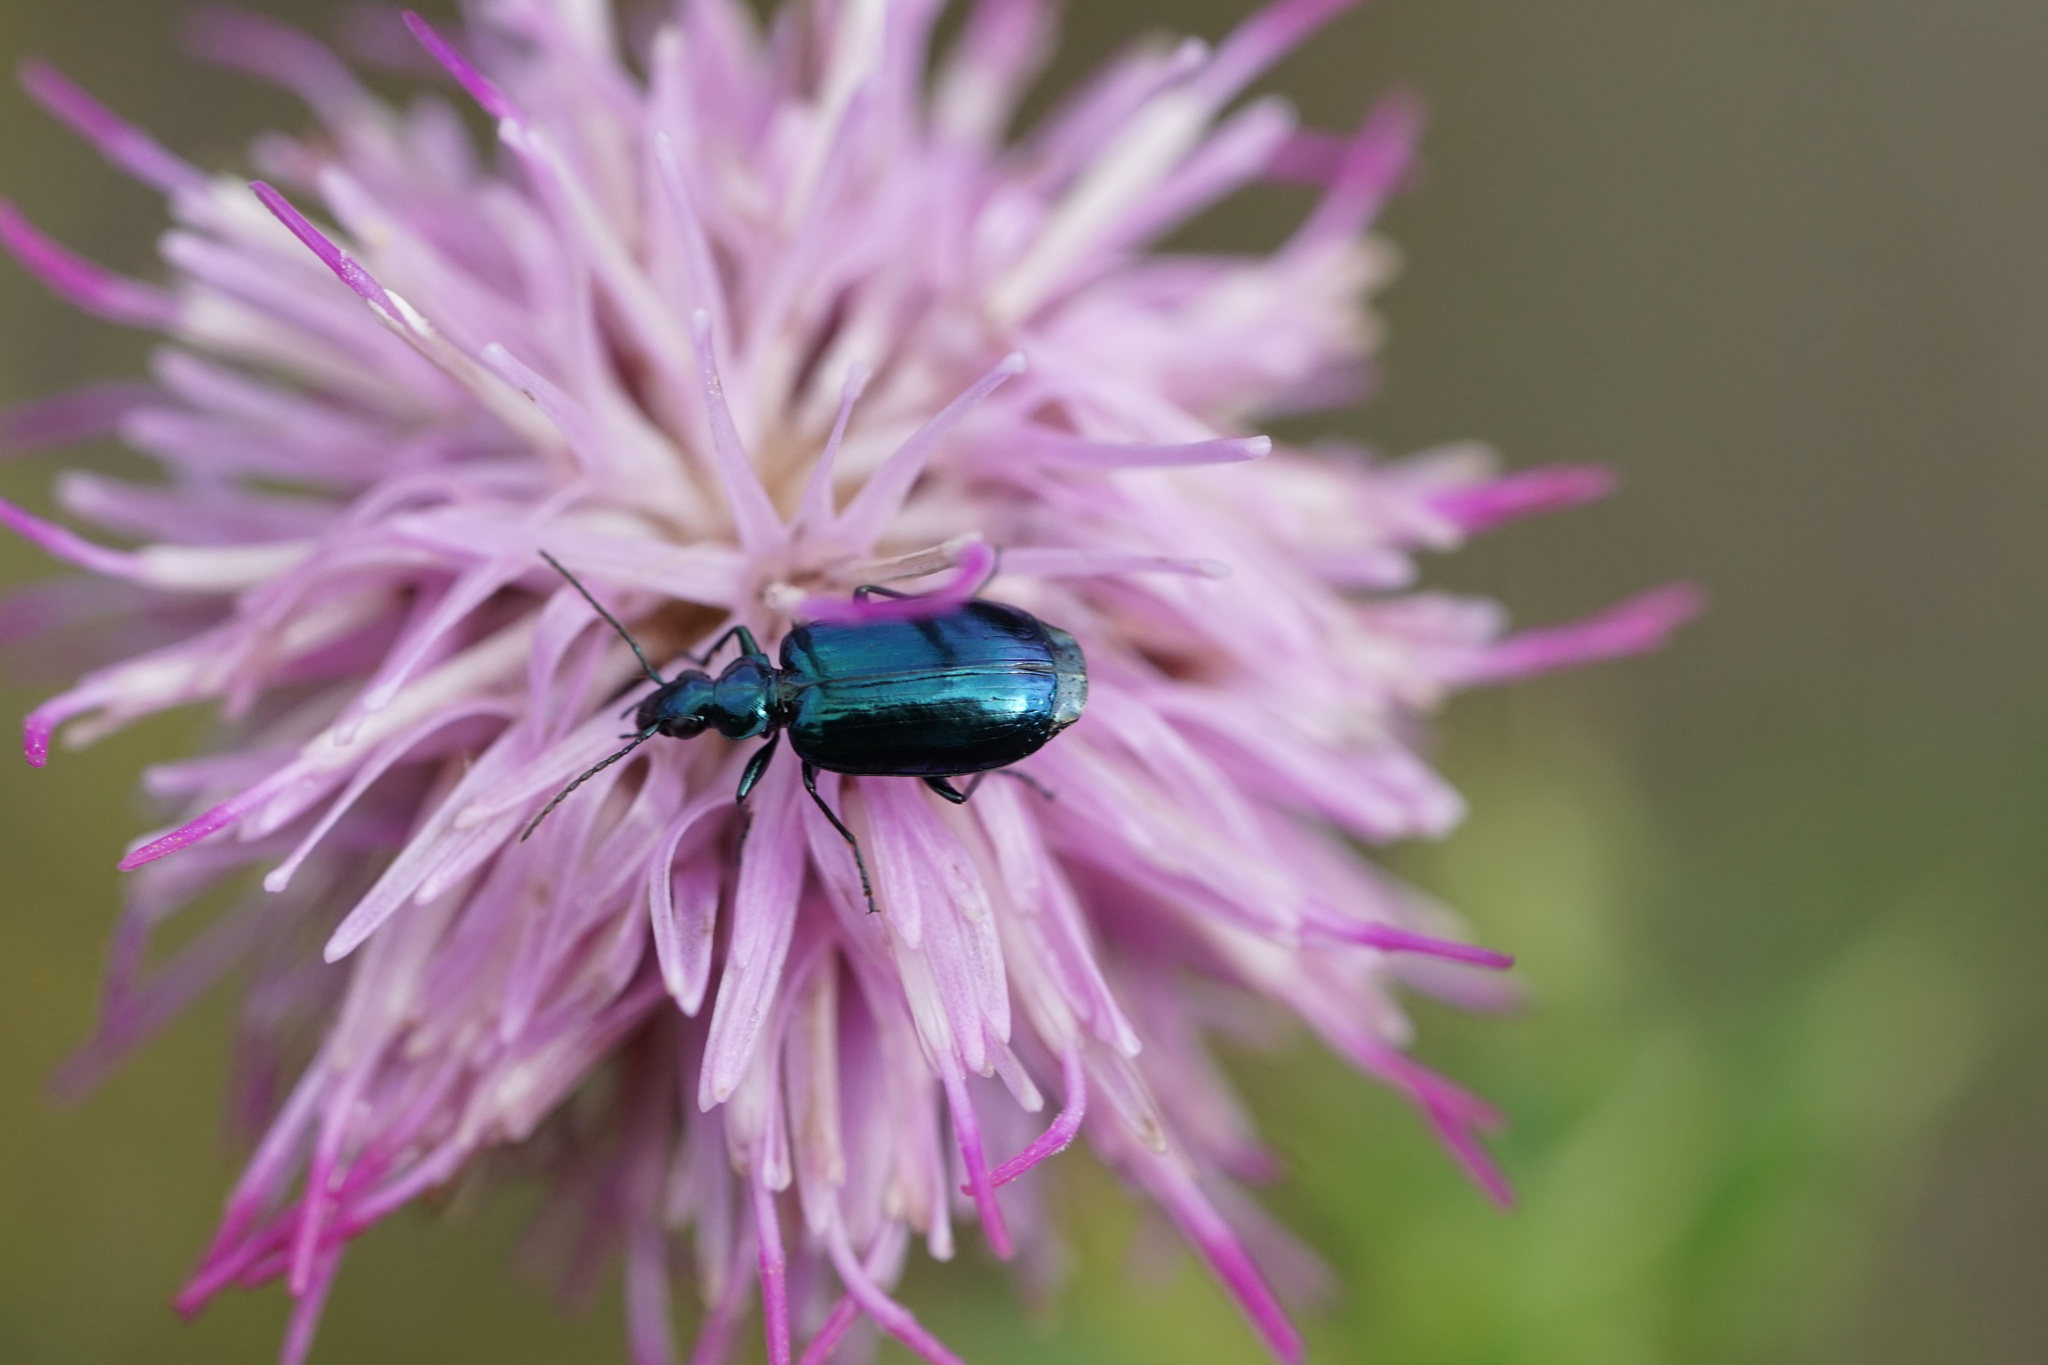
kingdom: Animalia
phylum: Arthropoda
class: Insecta
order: Coleoptera
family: Carabidae
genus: Lebia
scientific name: Lebia viridis
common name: Flower lebia beetle
